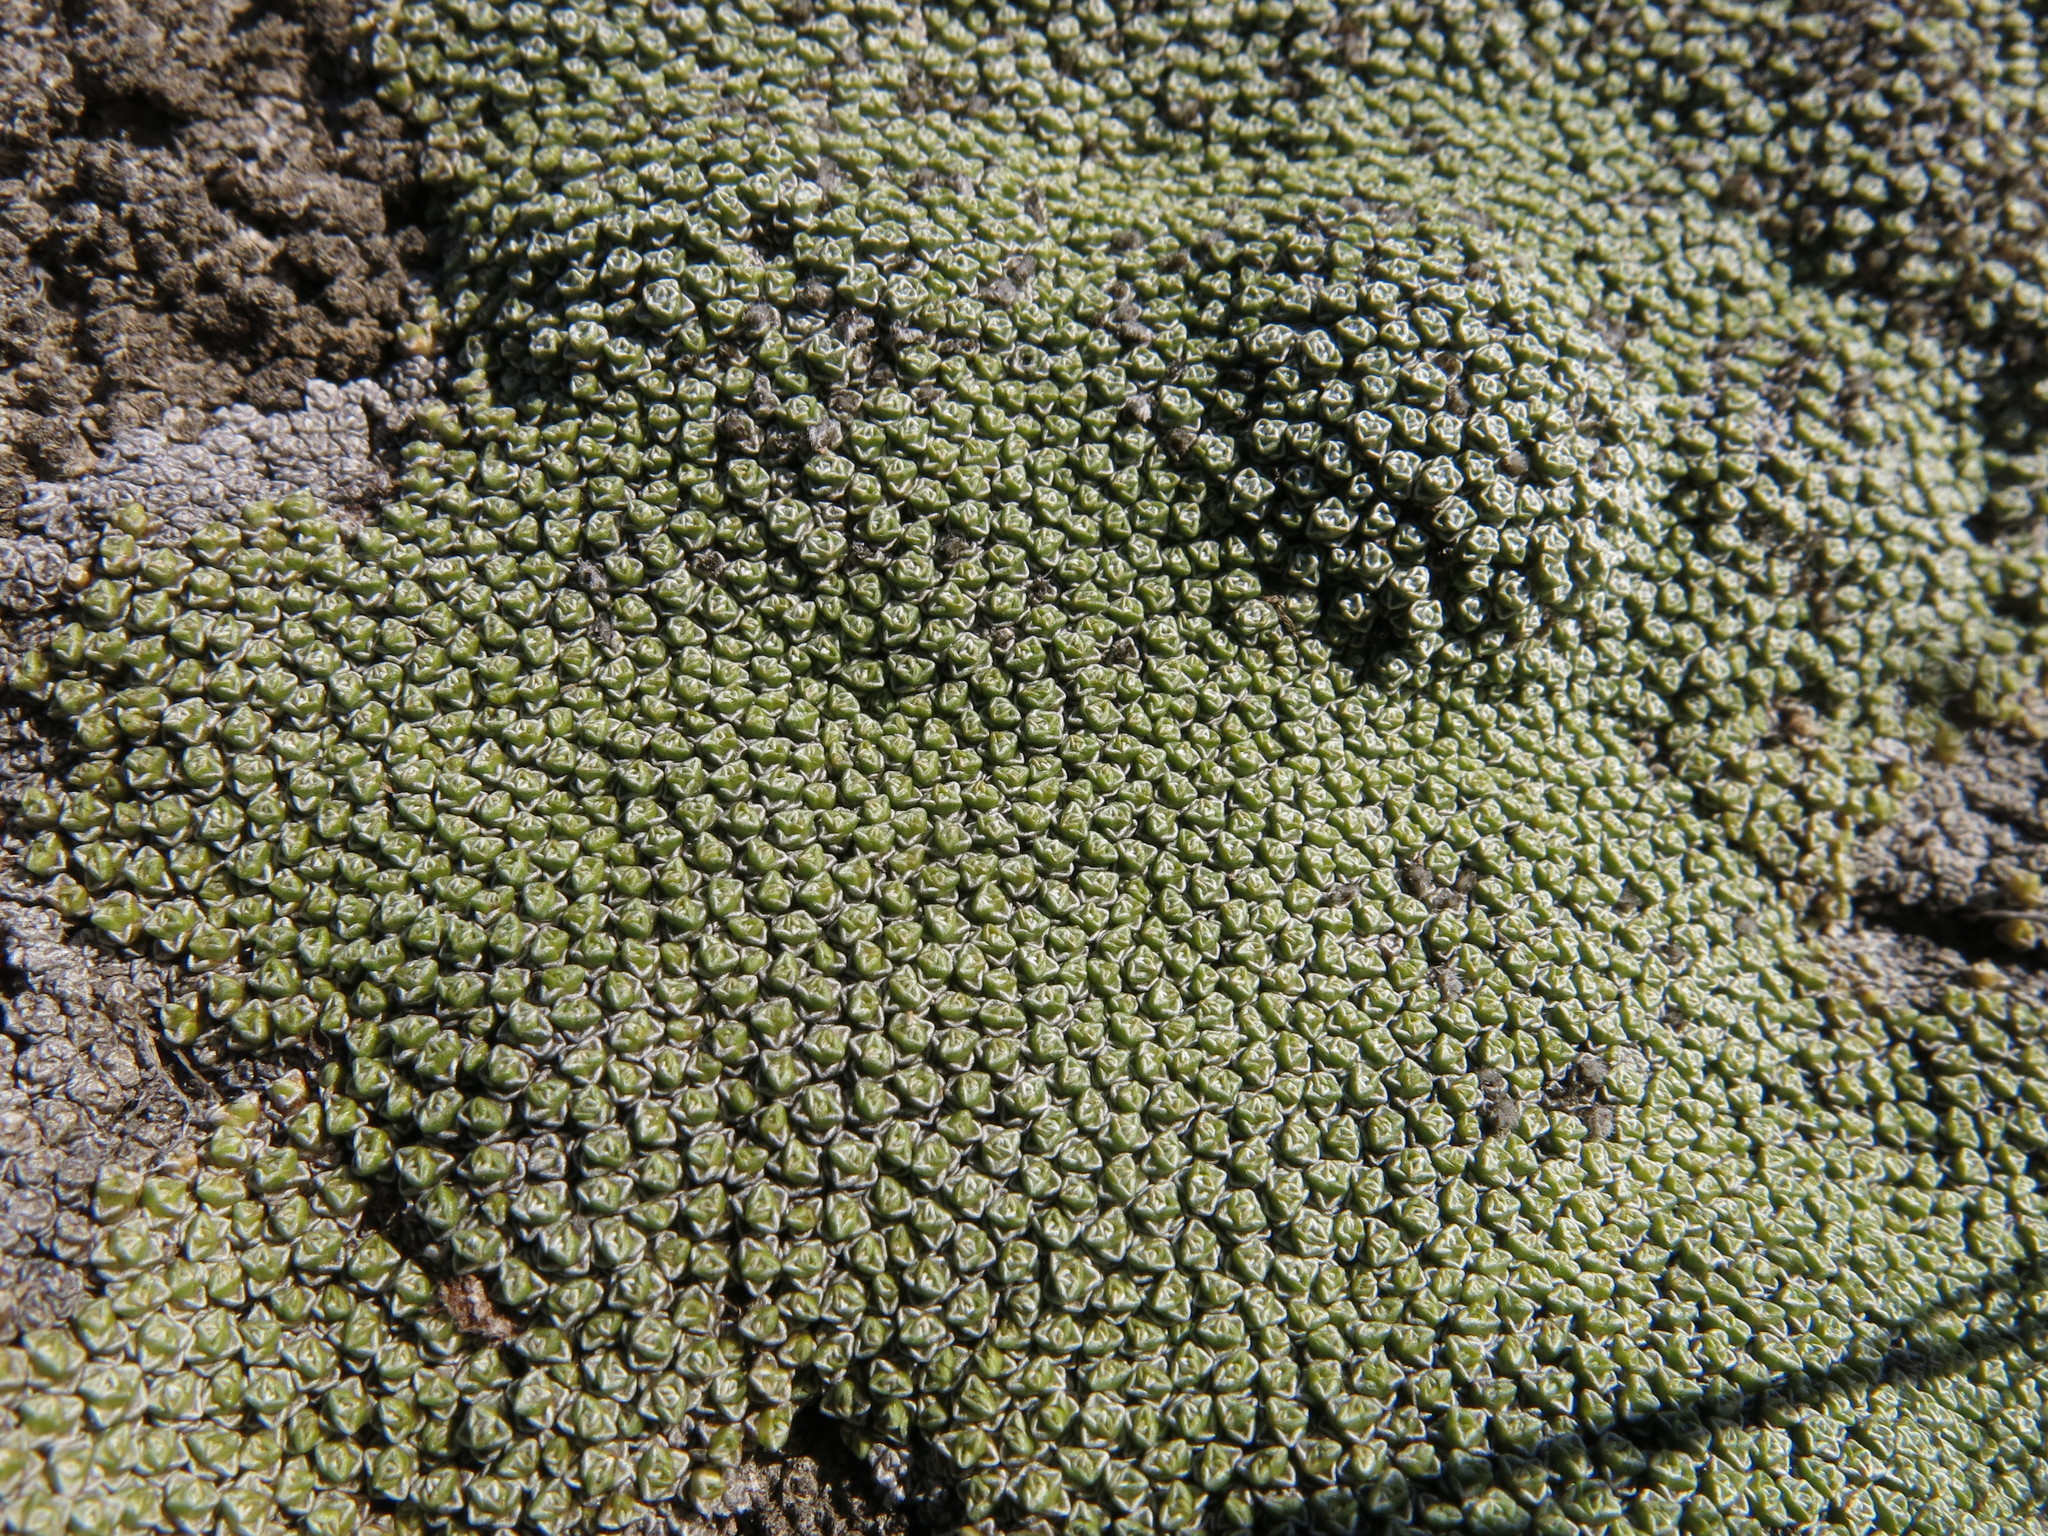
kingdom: Plantae
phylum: Tracheophyta
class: Magnoliopsida
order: Asterales
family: Asteraceae
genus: Raoulia
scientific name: Raoulia australis
